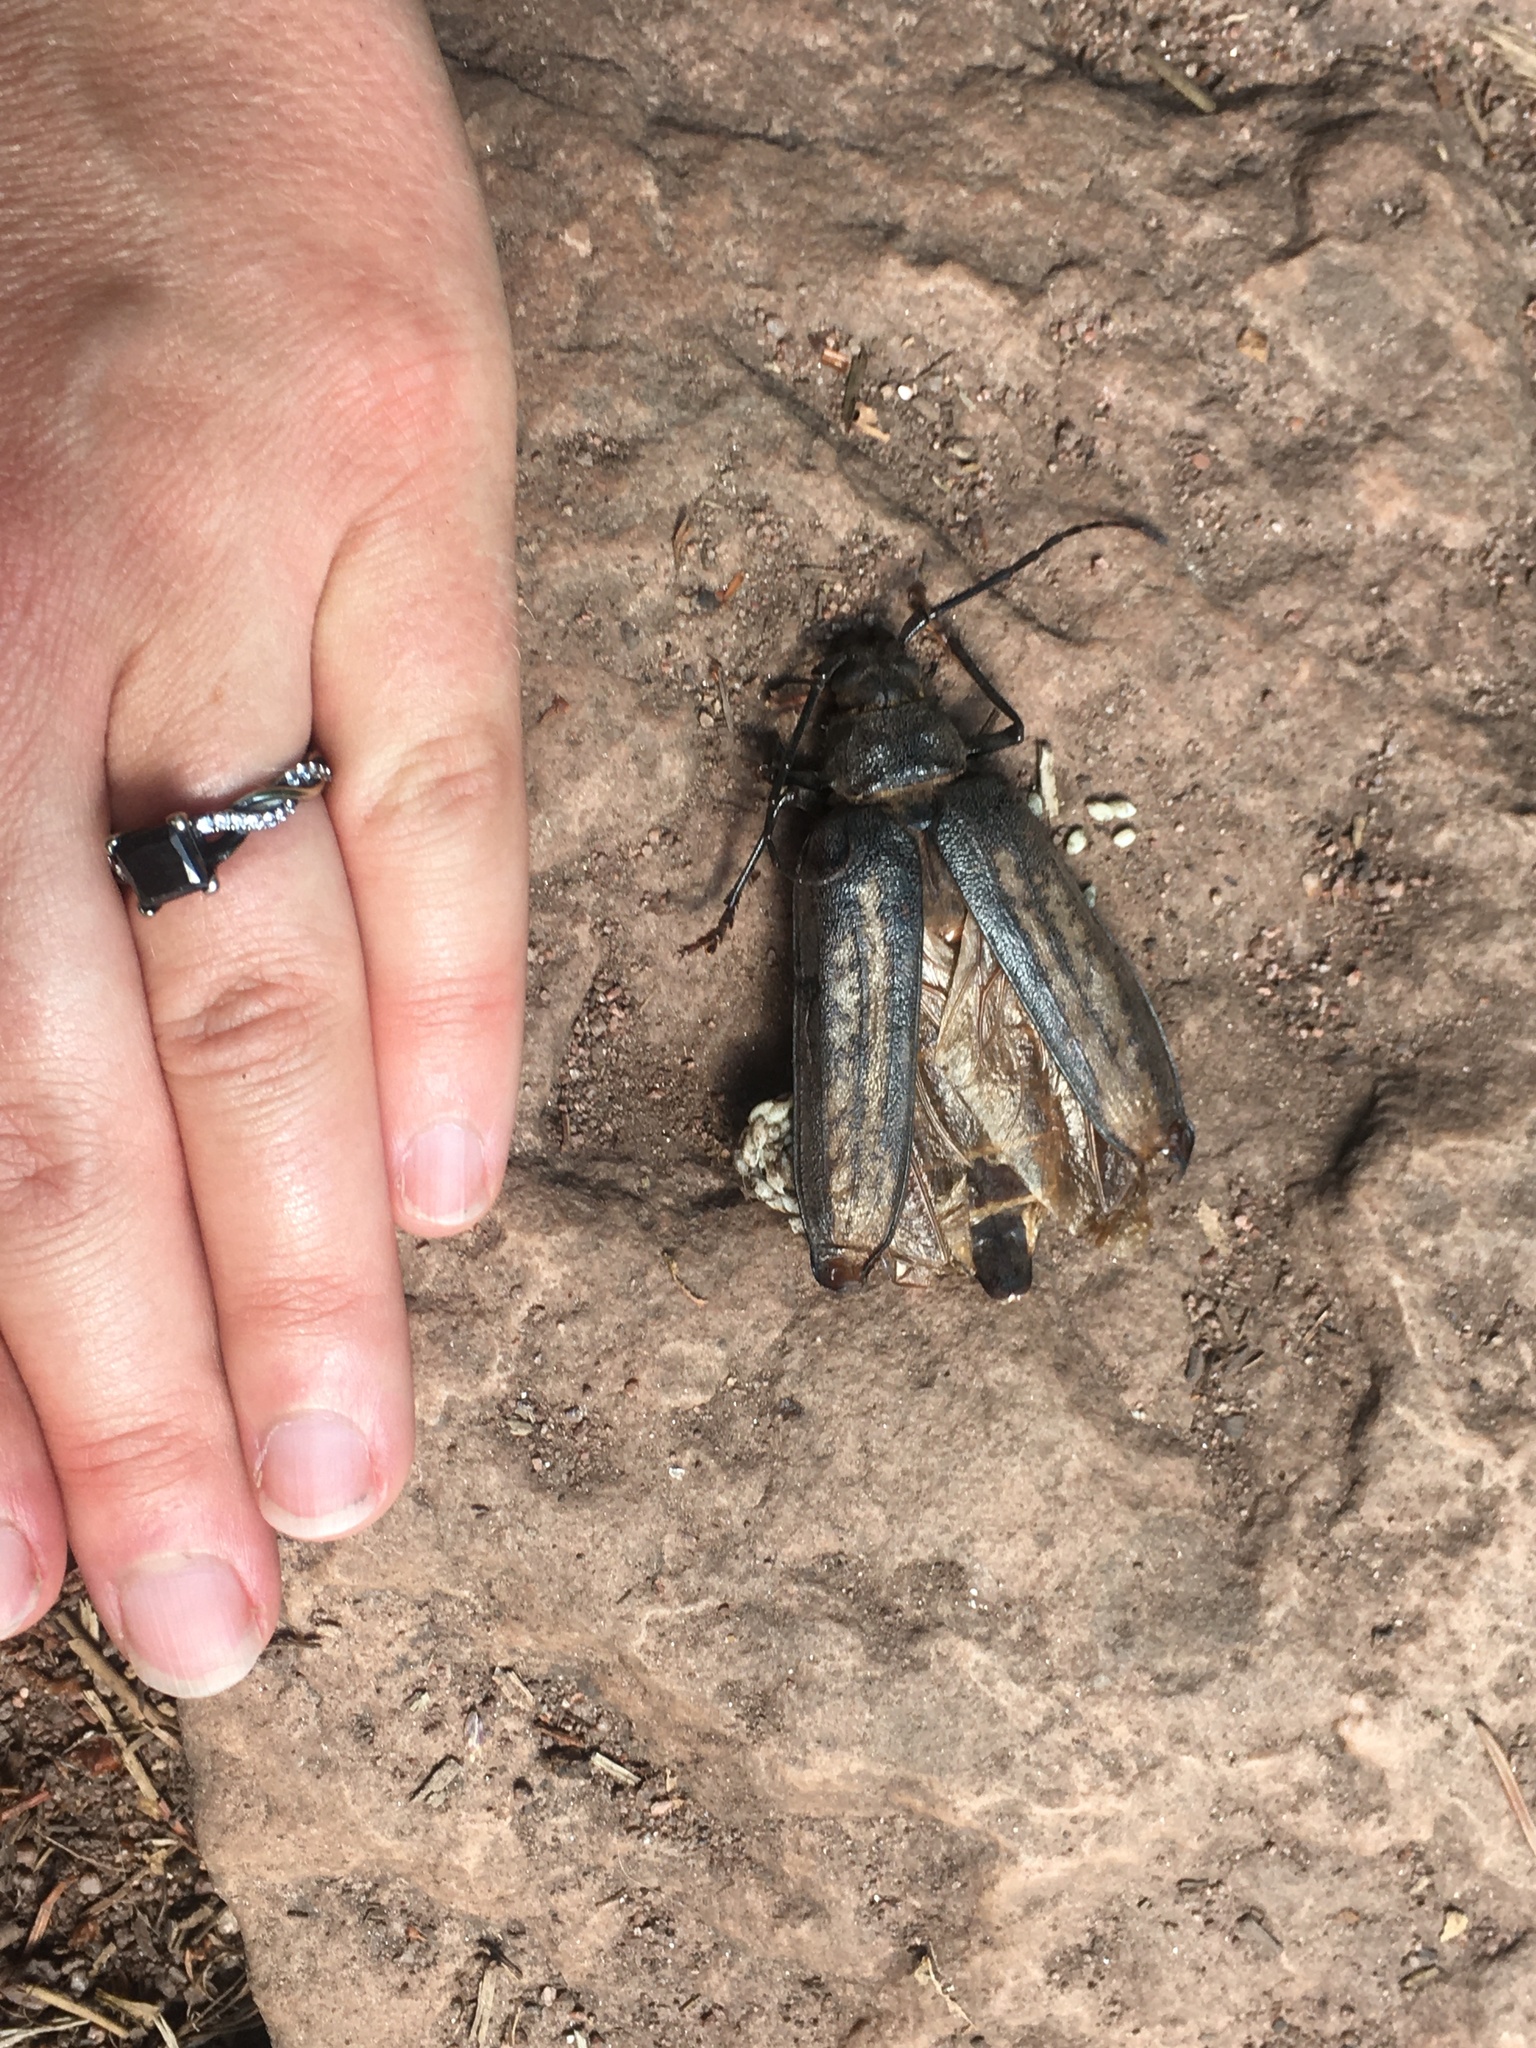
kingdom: Animalia
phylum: Arthropoda
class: Insecta
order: Coleoptera
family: Cerambycidae
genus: Trichocnemis
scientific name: Trichocnemis spiculatus
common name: Long-horned beetle
